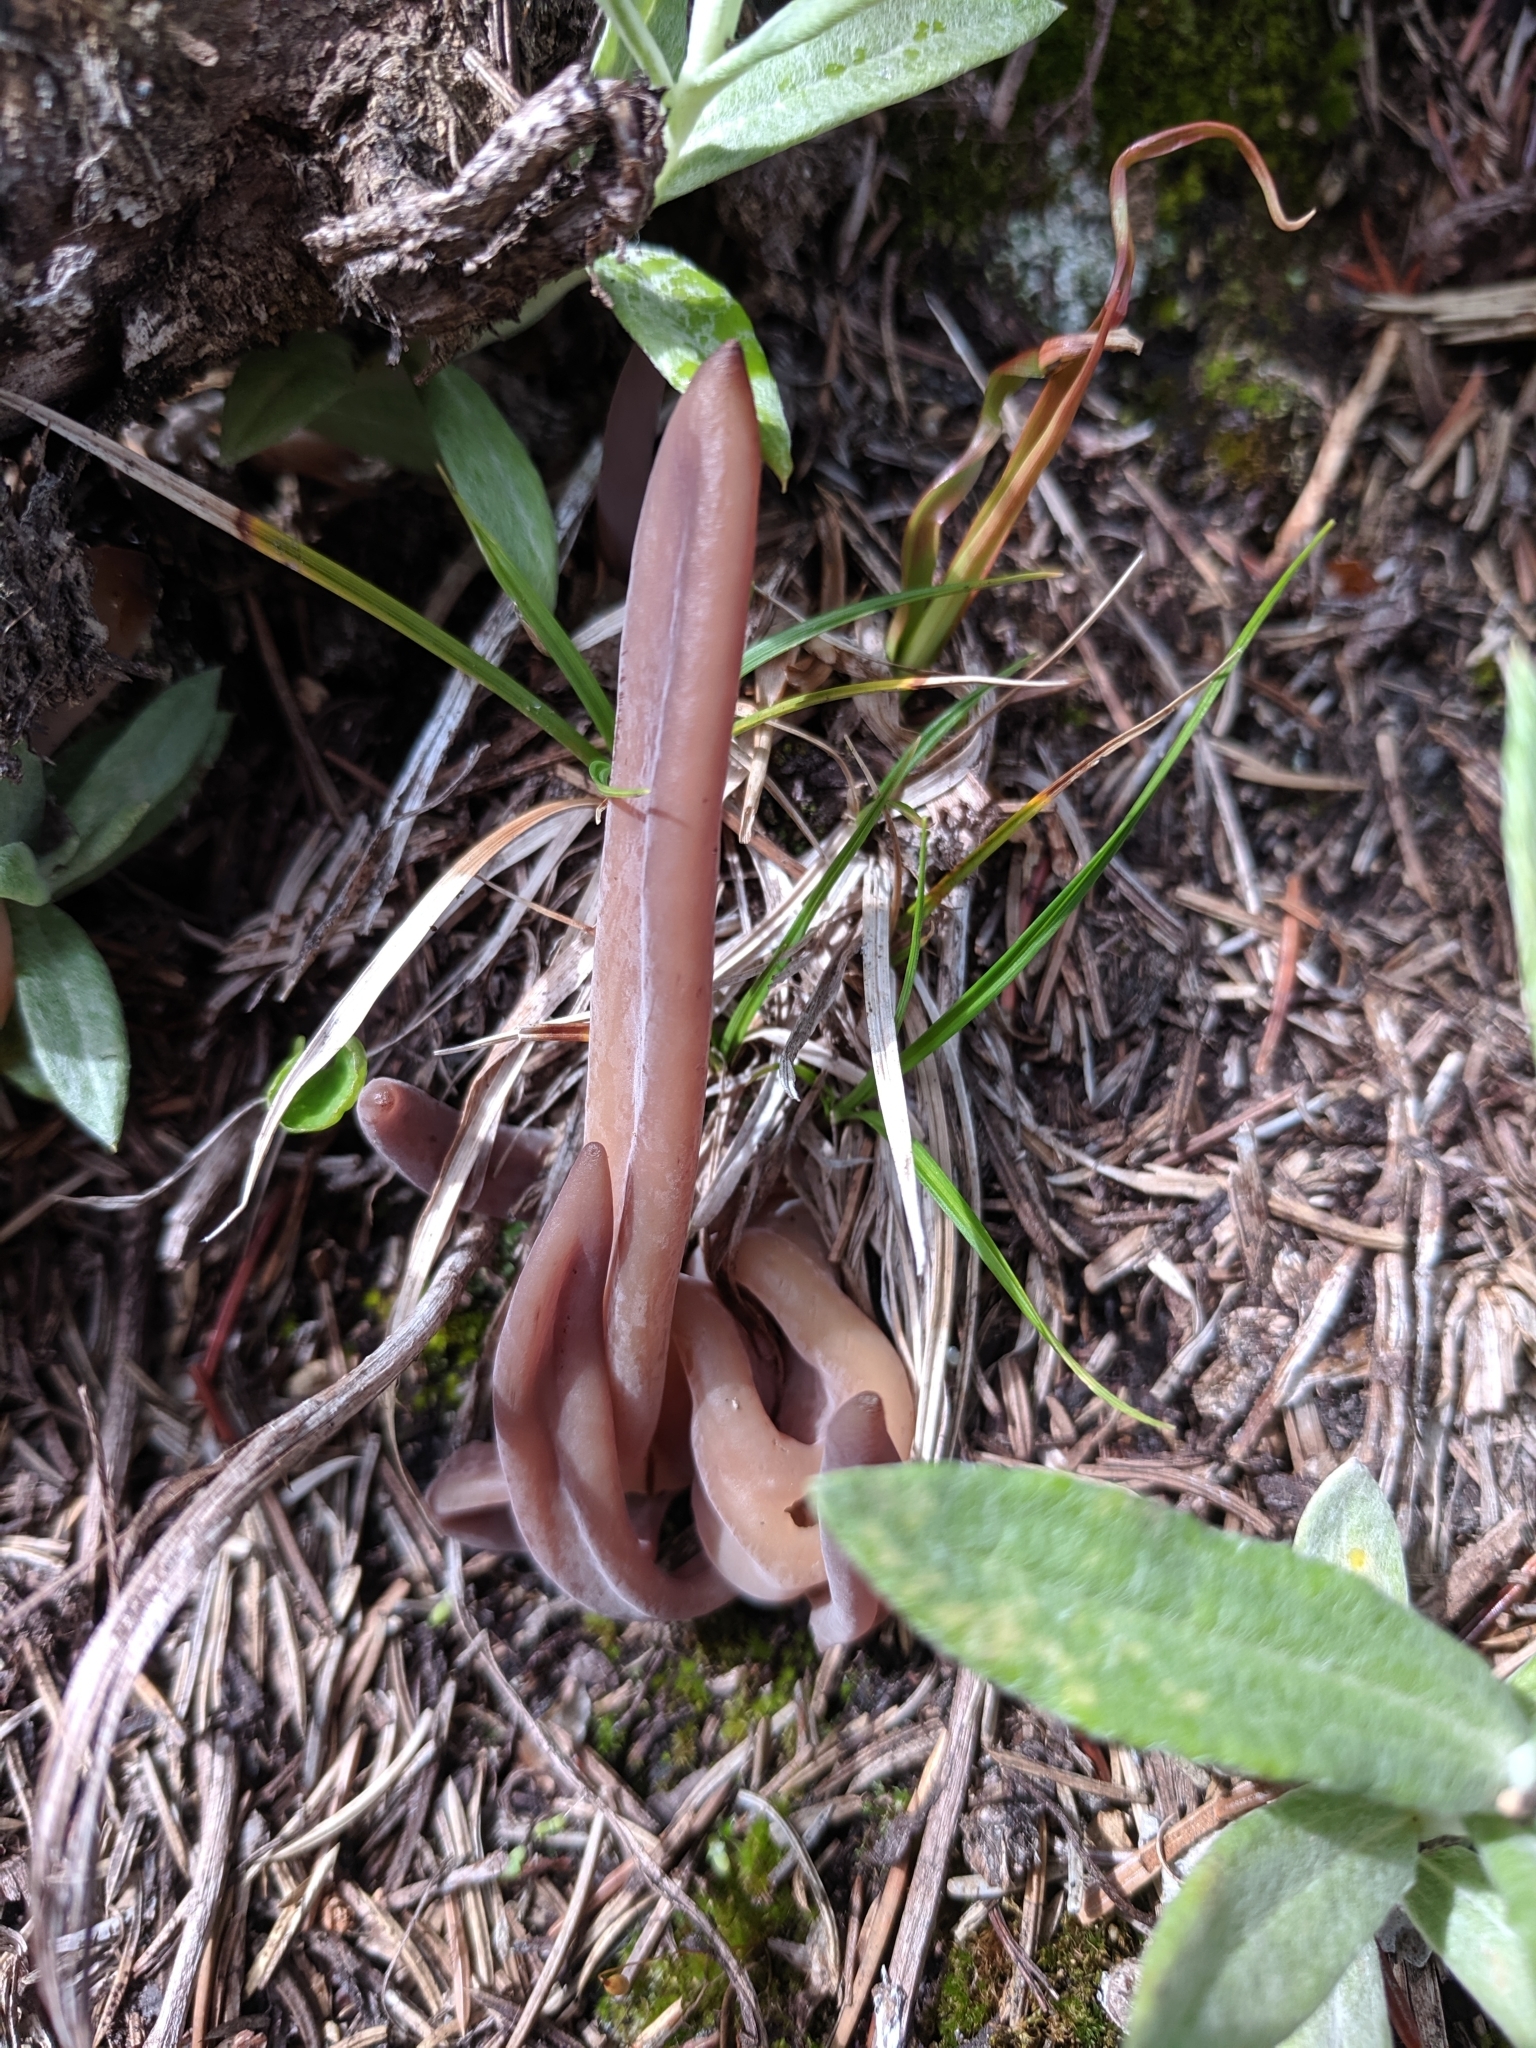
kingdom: Fungi
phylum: Basidiomycota
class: Agaricomycetes
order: Hymenochaetales
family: Rickenellaceae
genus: Alloclavaria
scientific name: Alloclavaria purpurea
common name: Purple spindles
